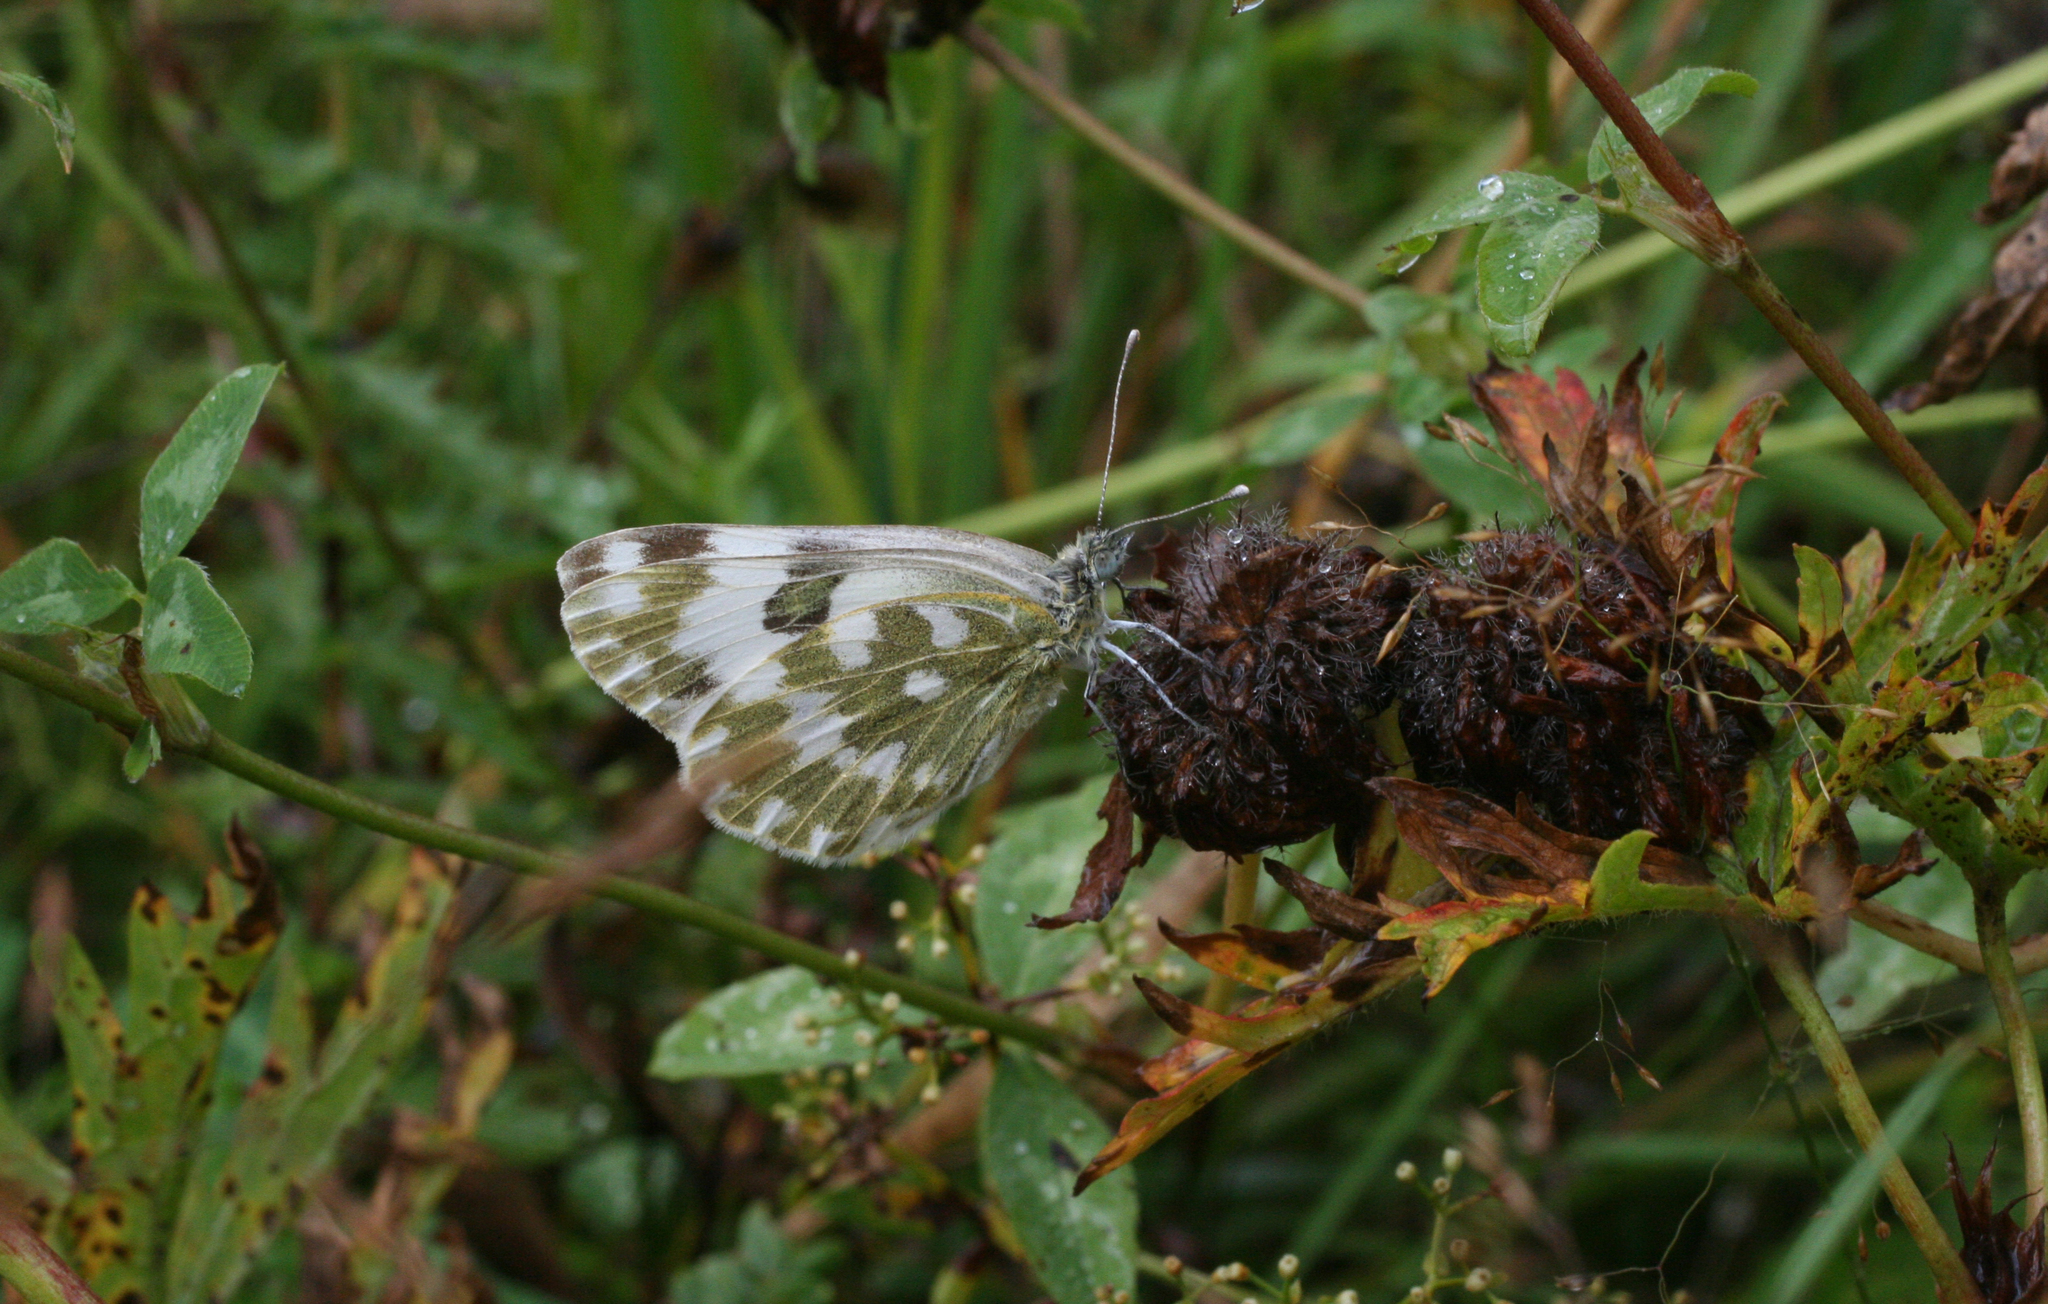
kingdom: Animalia
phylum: Arthropoda
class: Insecta
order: Lepidoptera
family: Pieridae
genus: Pontia
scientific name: Pontia edusa
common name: Eastern bath white
